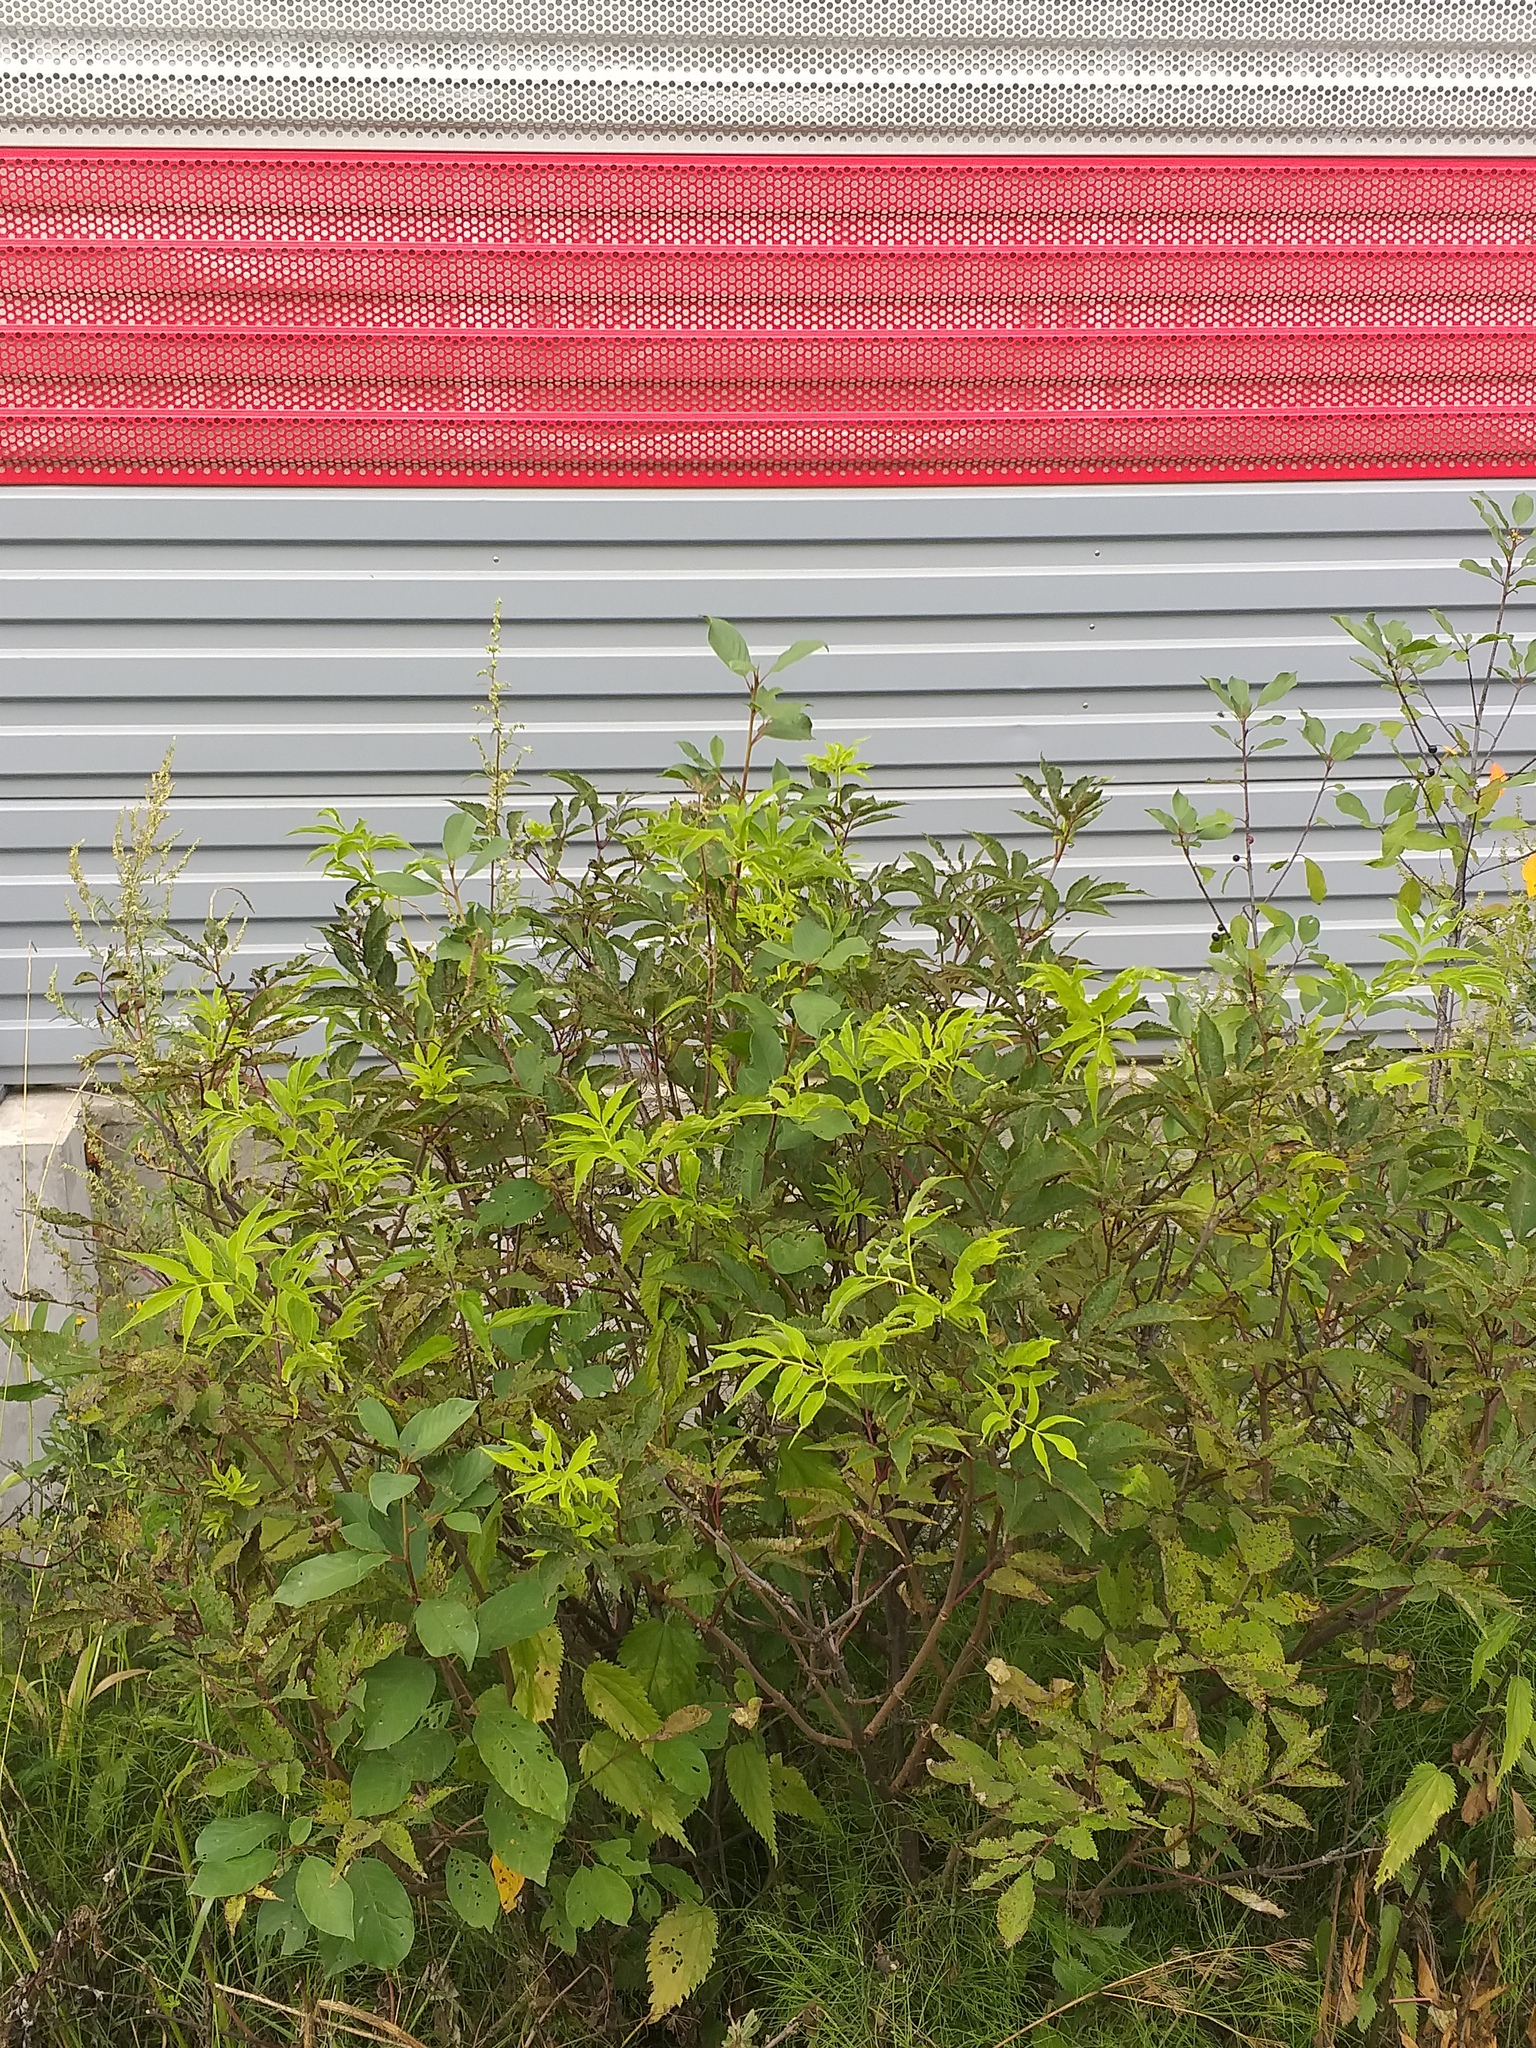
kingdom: Plantae
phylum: Tracheophyta
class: Magnoliopsida
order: Dipsacales
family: Viburnaceae
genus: Sambucus
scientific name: Sambucus racemosa
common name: Red-berried elder
